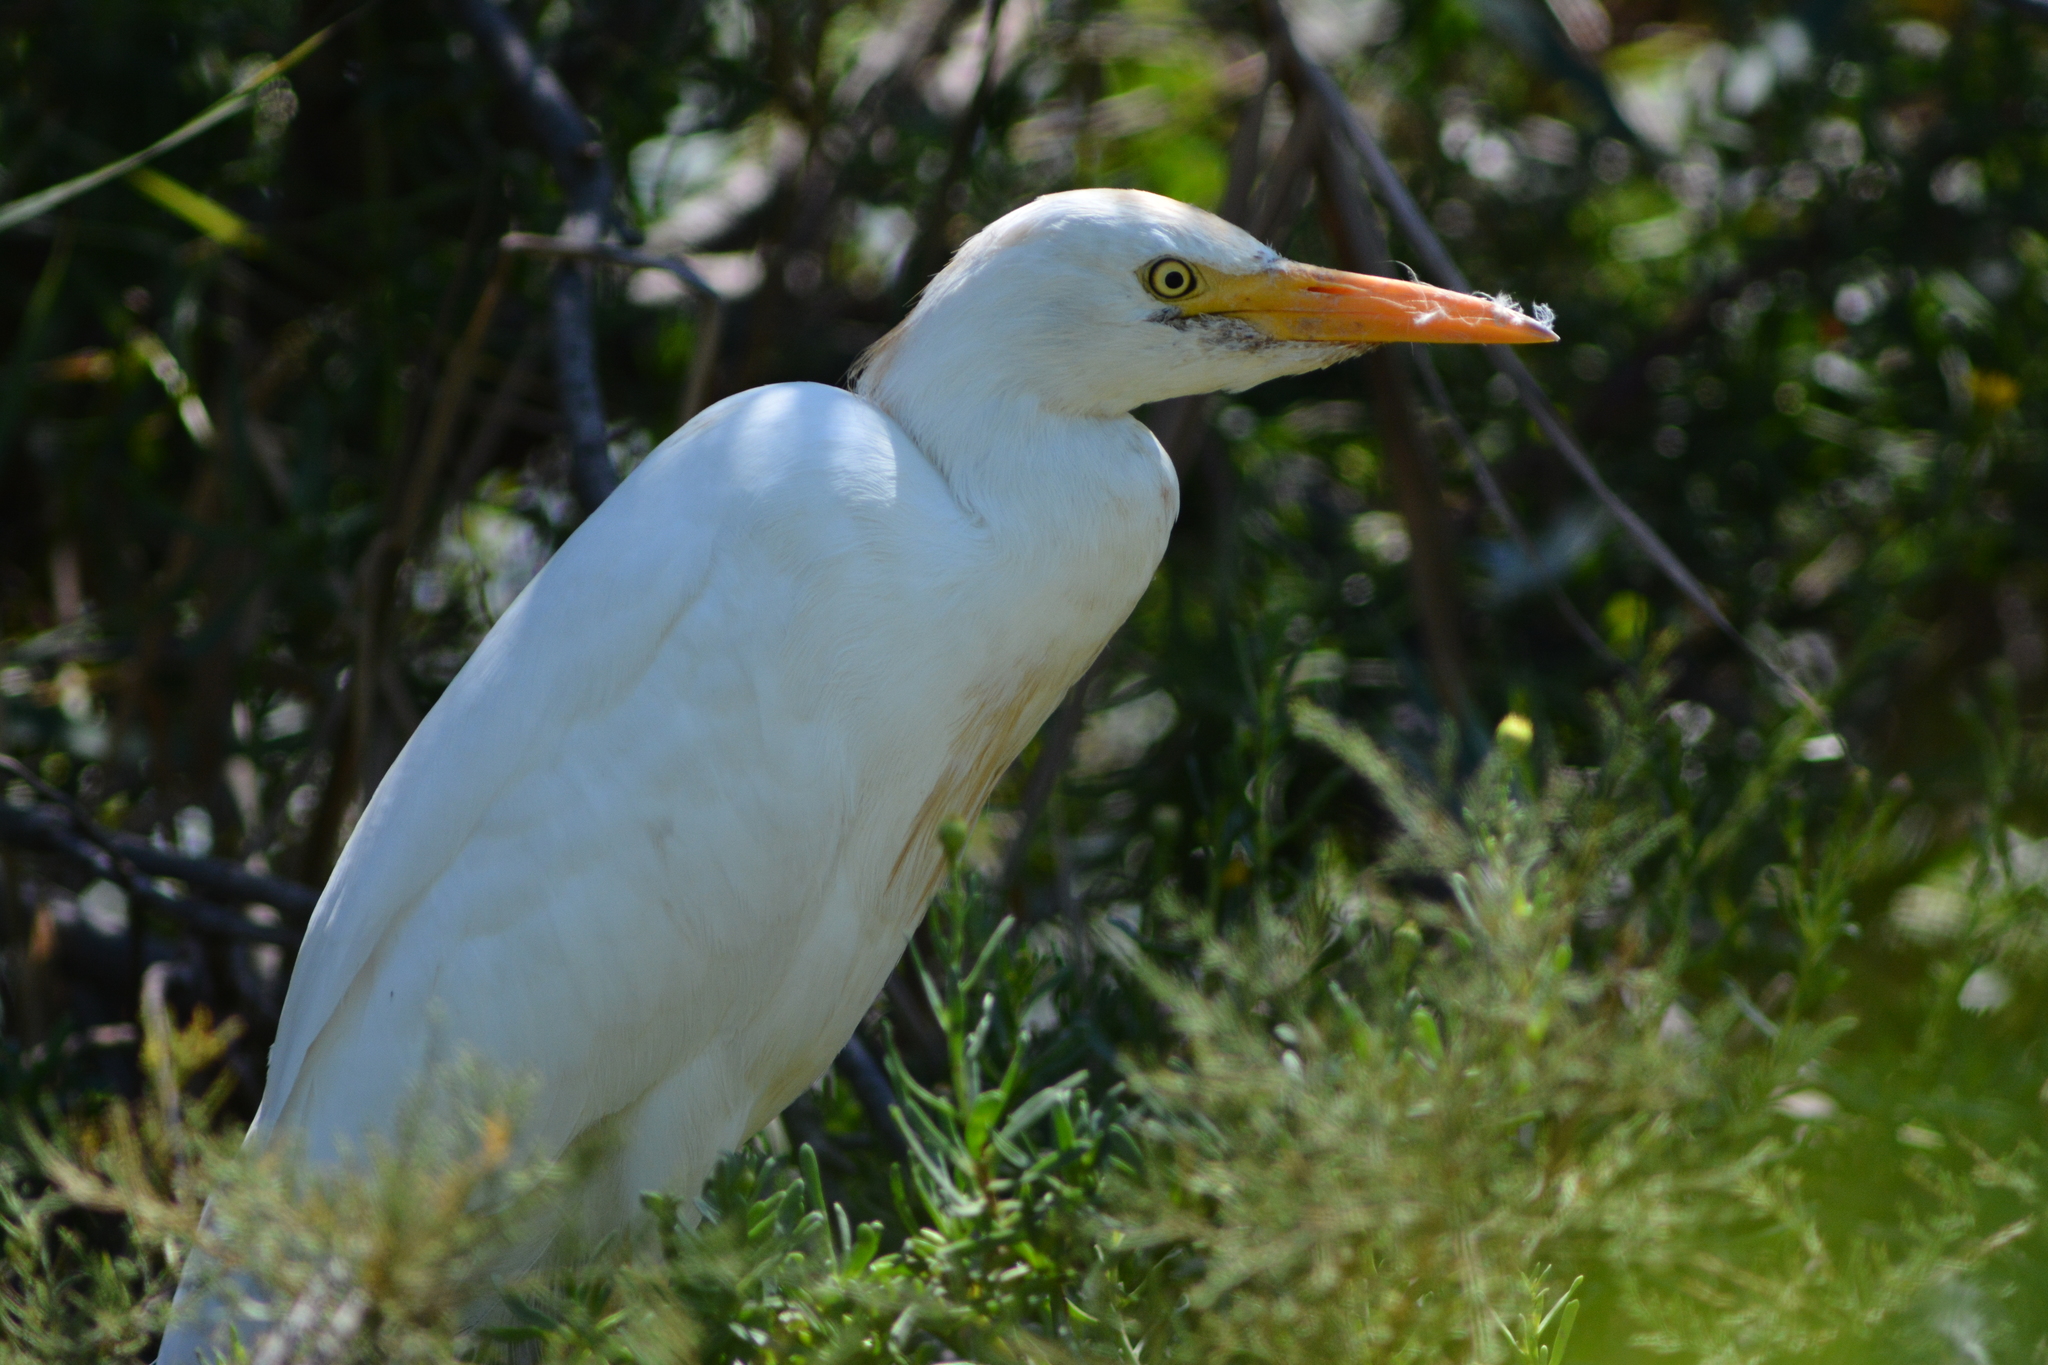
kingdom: Animalia
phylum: Chordata
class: Aves
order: Pelecaniformes
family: Ardeidae
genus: Bubulcus
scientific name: Bubulcus ibis
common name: Cattle egret
